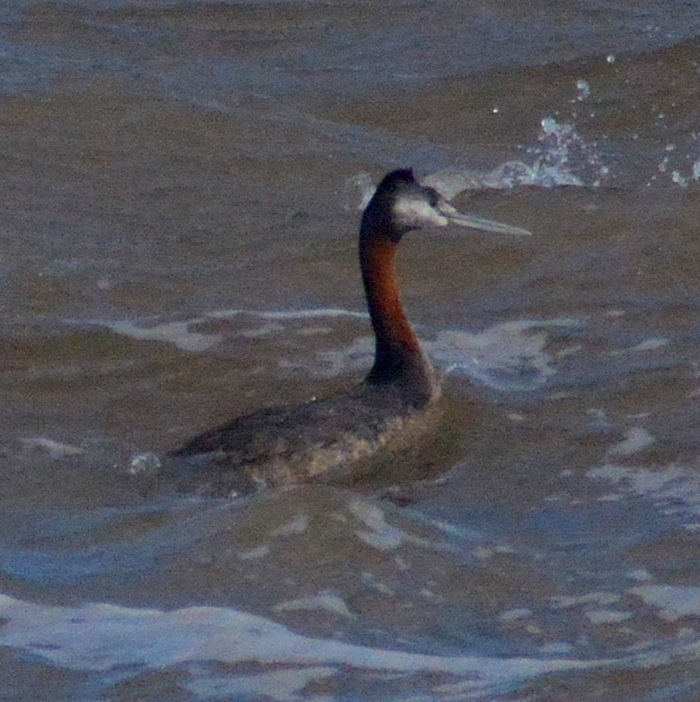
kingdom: Animalia
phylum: Chordata
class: Aves
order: Podicipediformes
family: Podicipedidae
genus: Podiceps
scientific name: Podiceps major
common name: Great grebe
